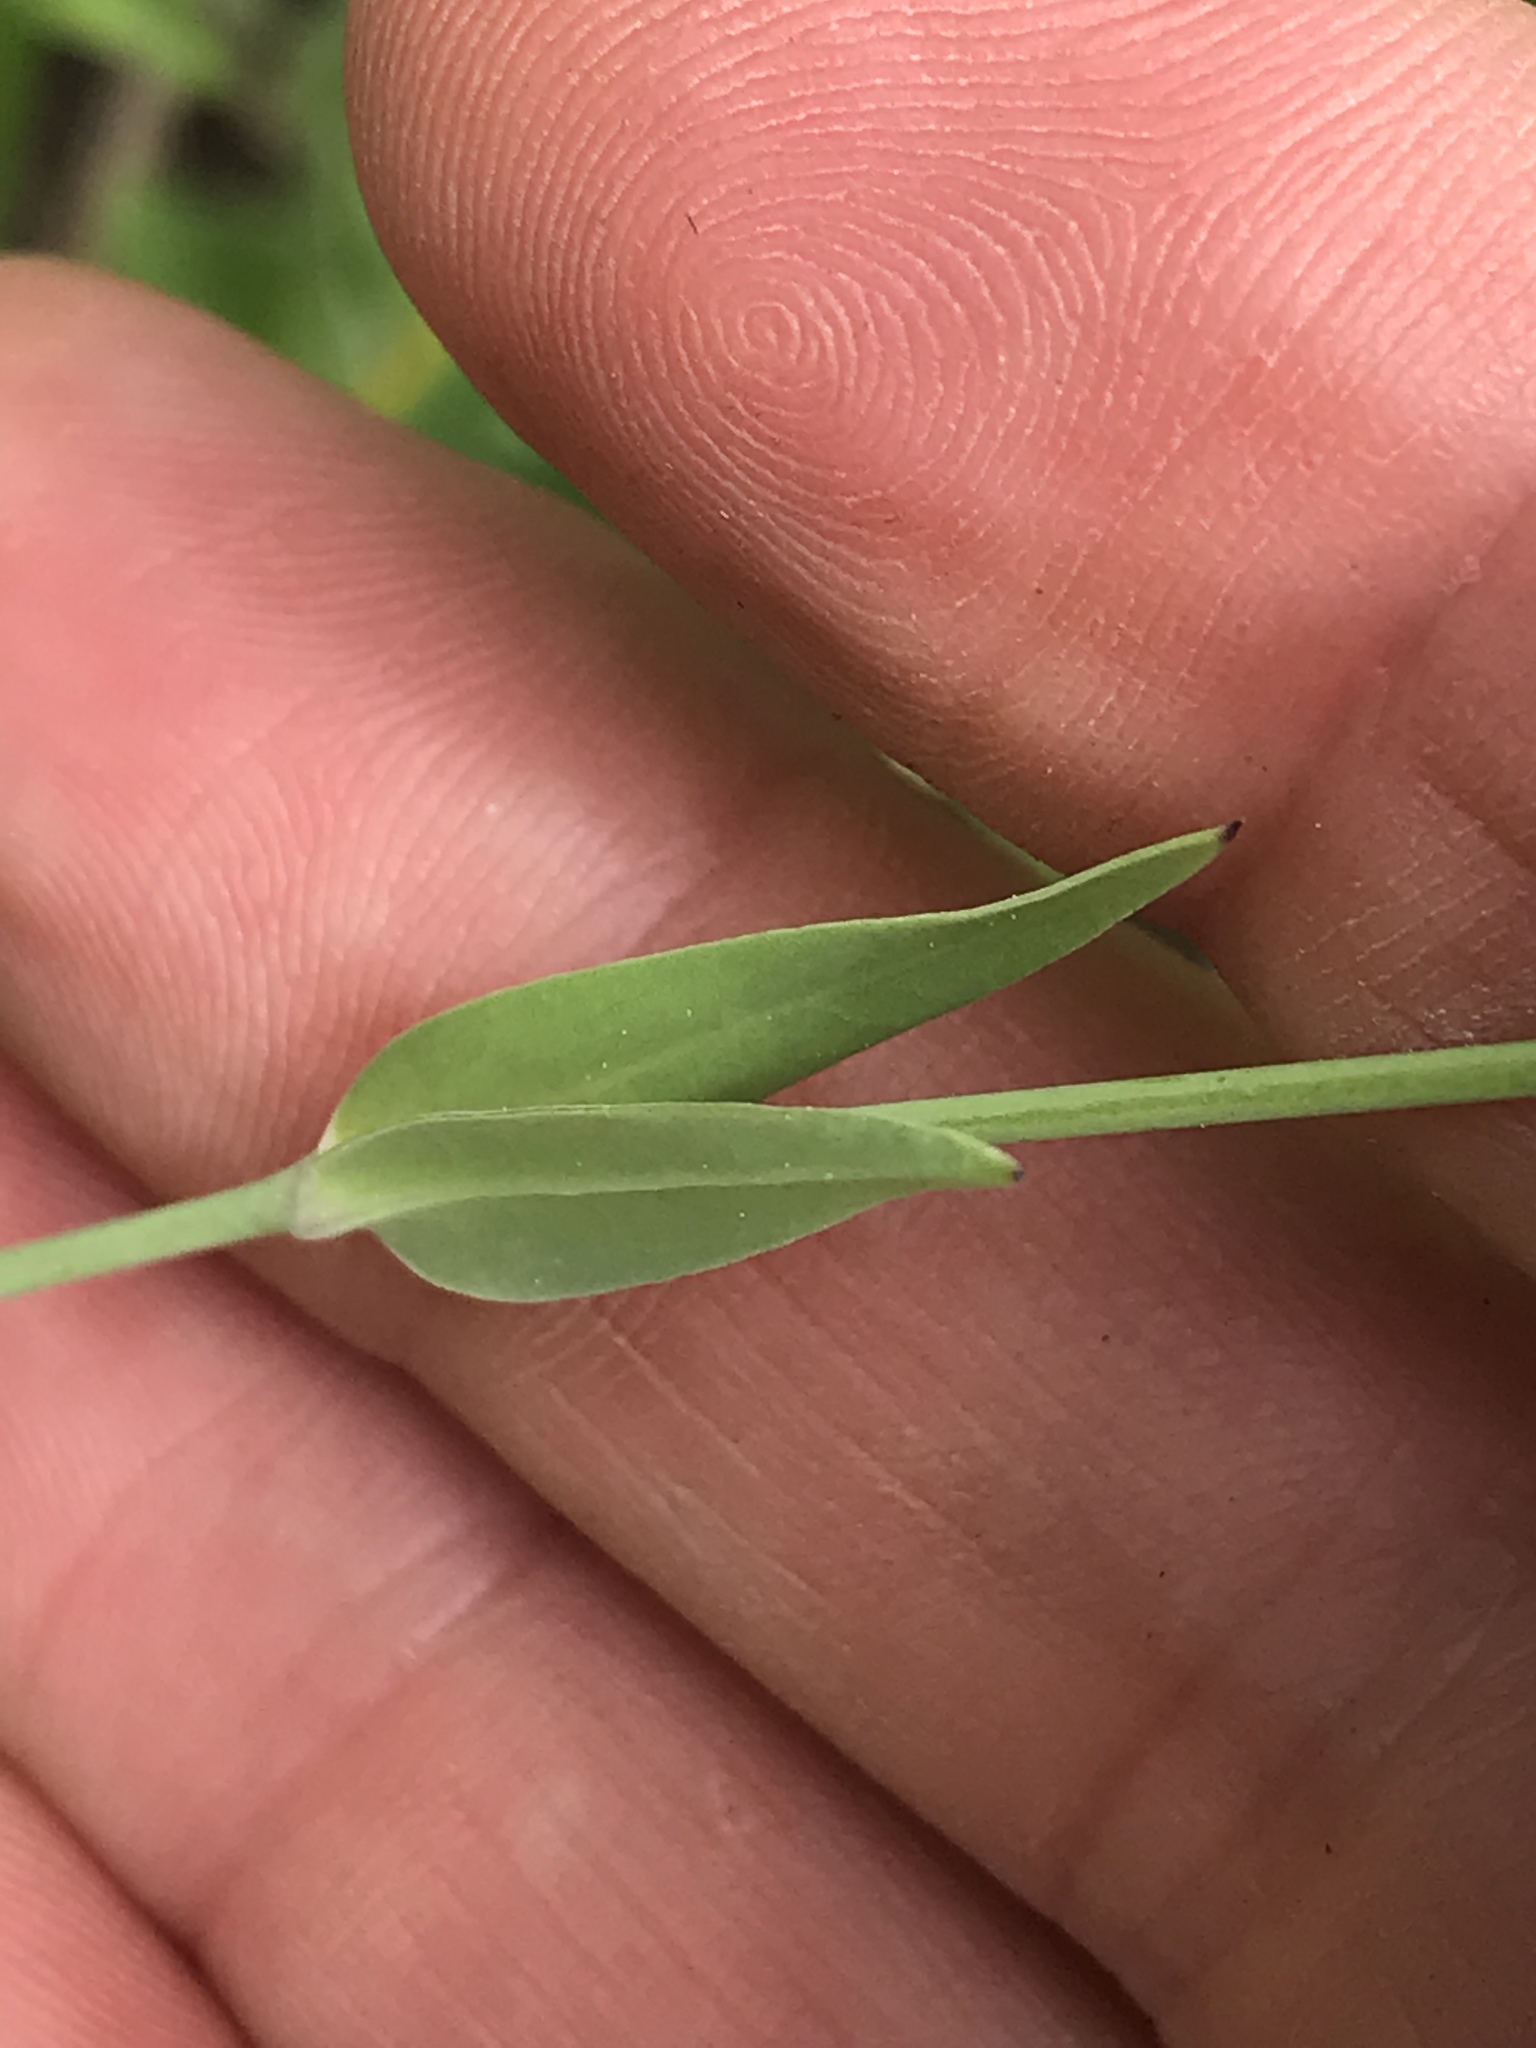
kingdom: Plantae
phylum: Tracheophyta
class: Magnoliopsida
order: Caryophyllales
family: Caryophyllaceae
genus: Silene
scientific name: Silene vulgaris
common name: Bladder campion
